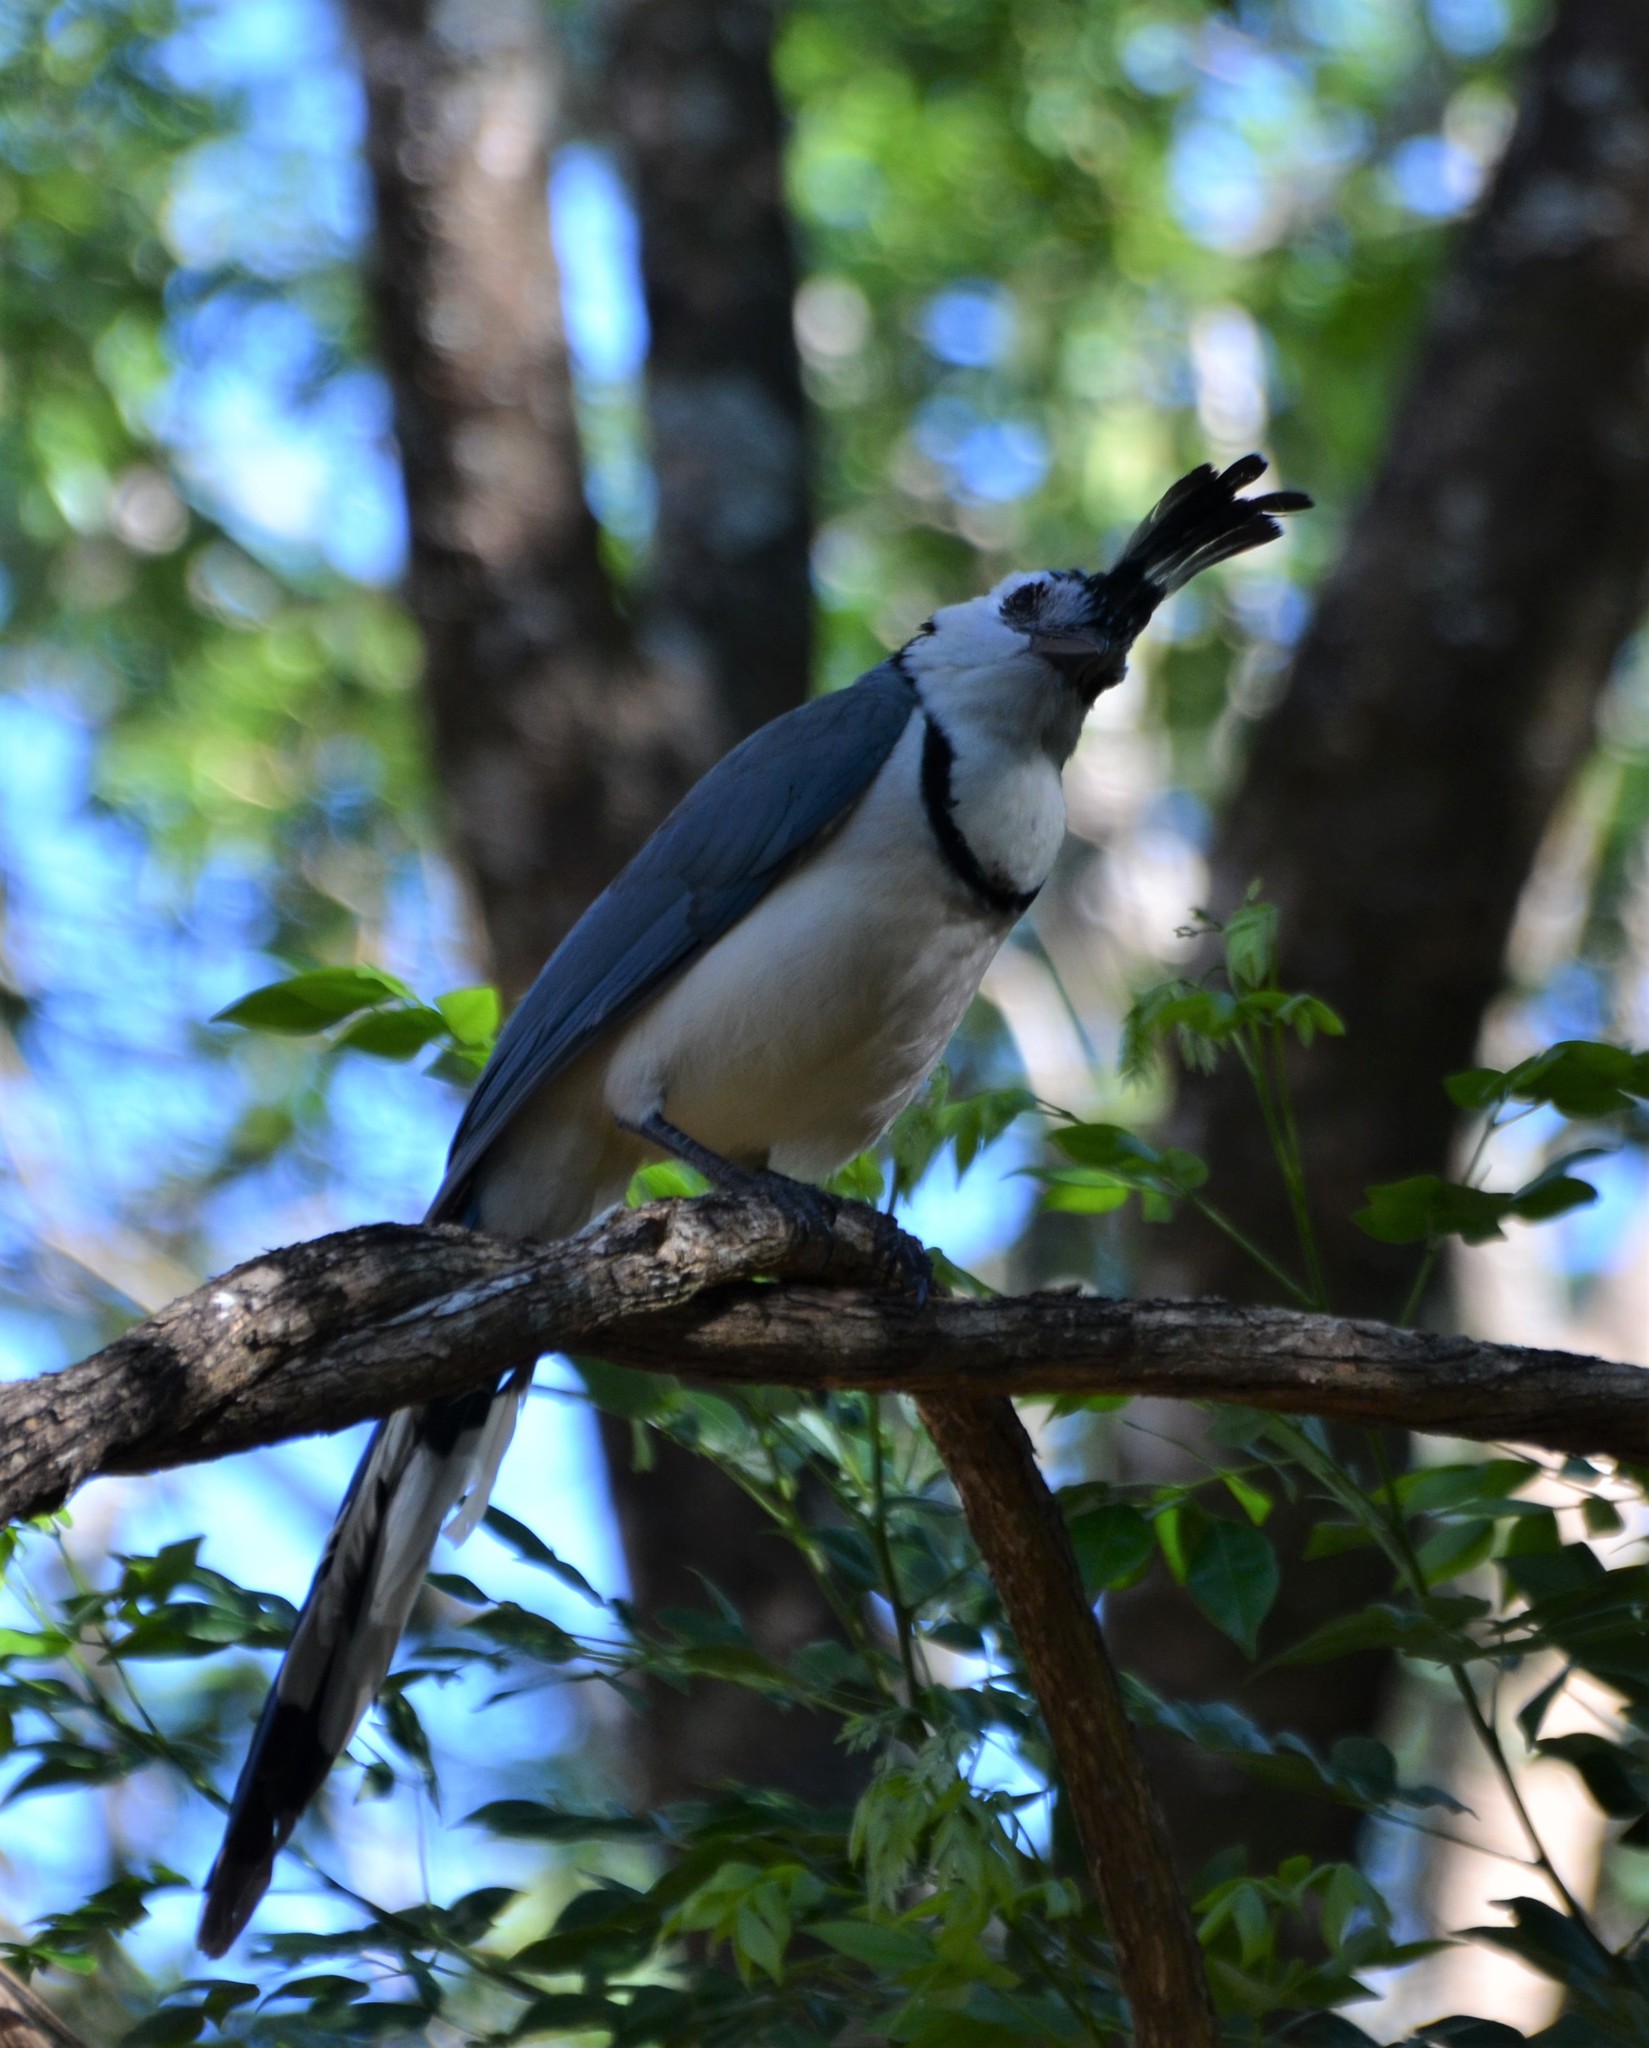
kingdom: Animalia
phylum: Chordata
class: Aves
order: Passeriformes
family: Corvidae
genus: Calocitta
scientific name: Calocitta formosa
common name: White-throated magpie-jay
